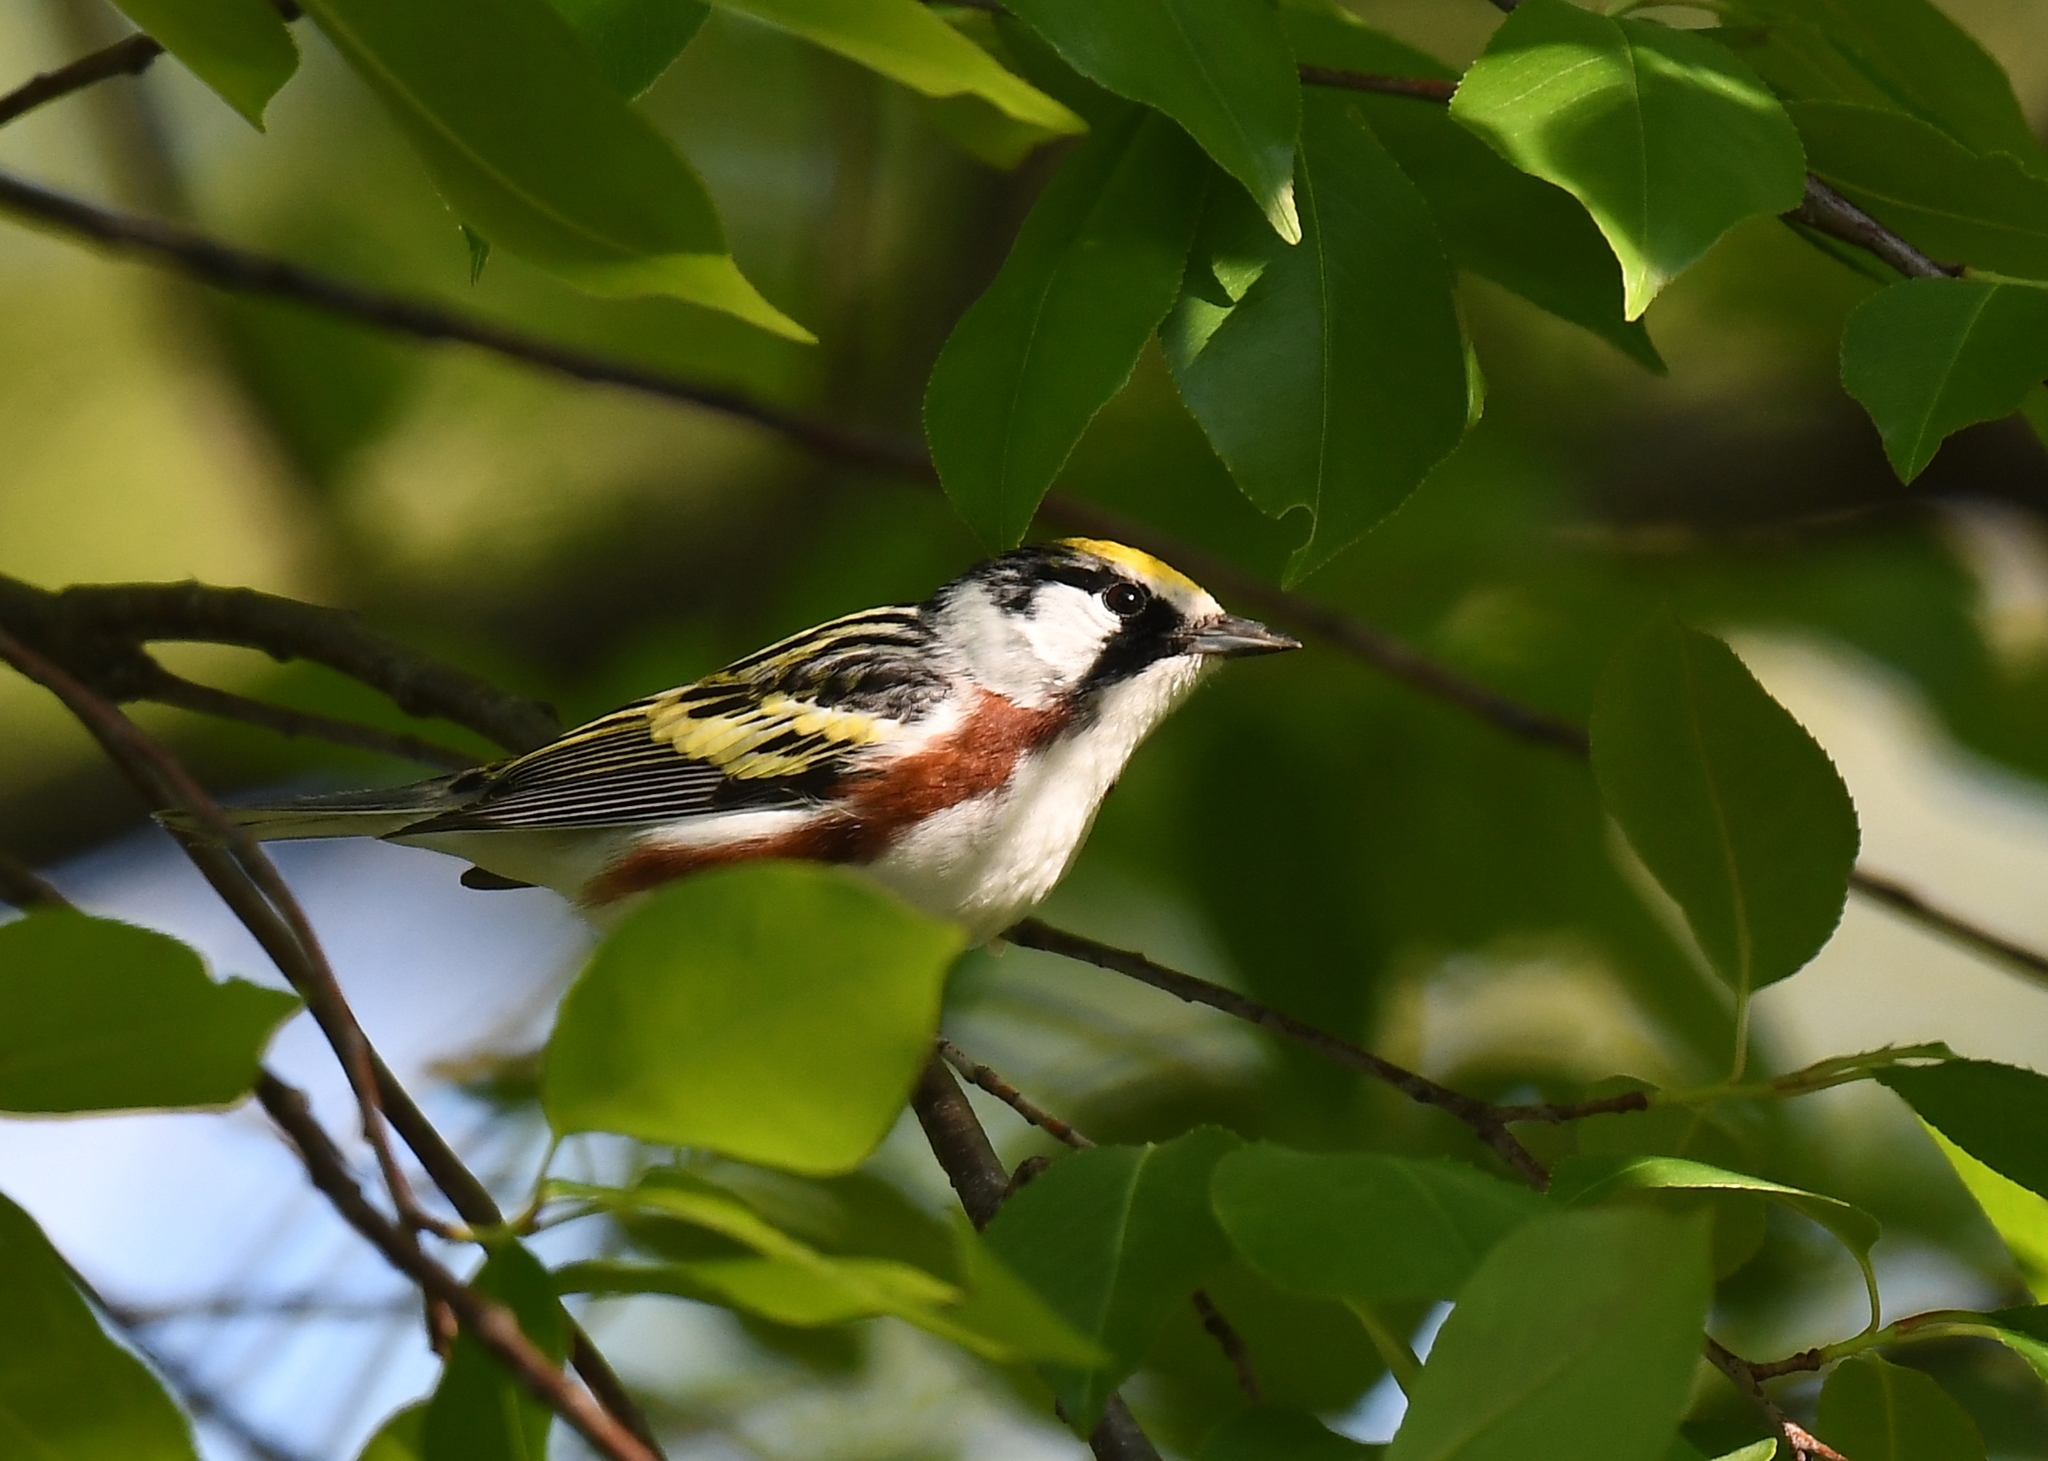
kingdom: Animalia
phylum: Chordata
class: Aves
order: Passeriformes
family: Parulidae
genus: Setophaga
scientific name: Setophaga pensylvanica
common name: Chestnut-sided warbler
